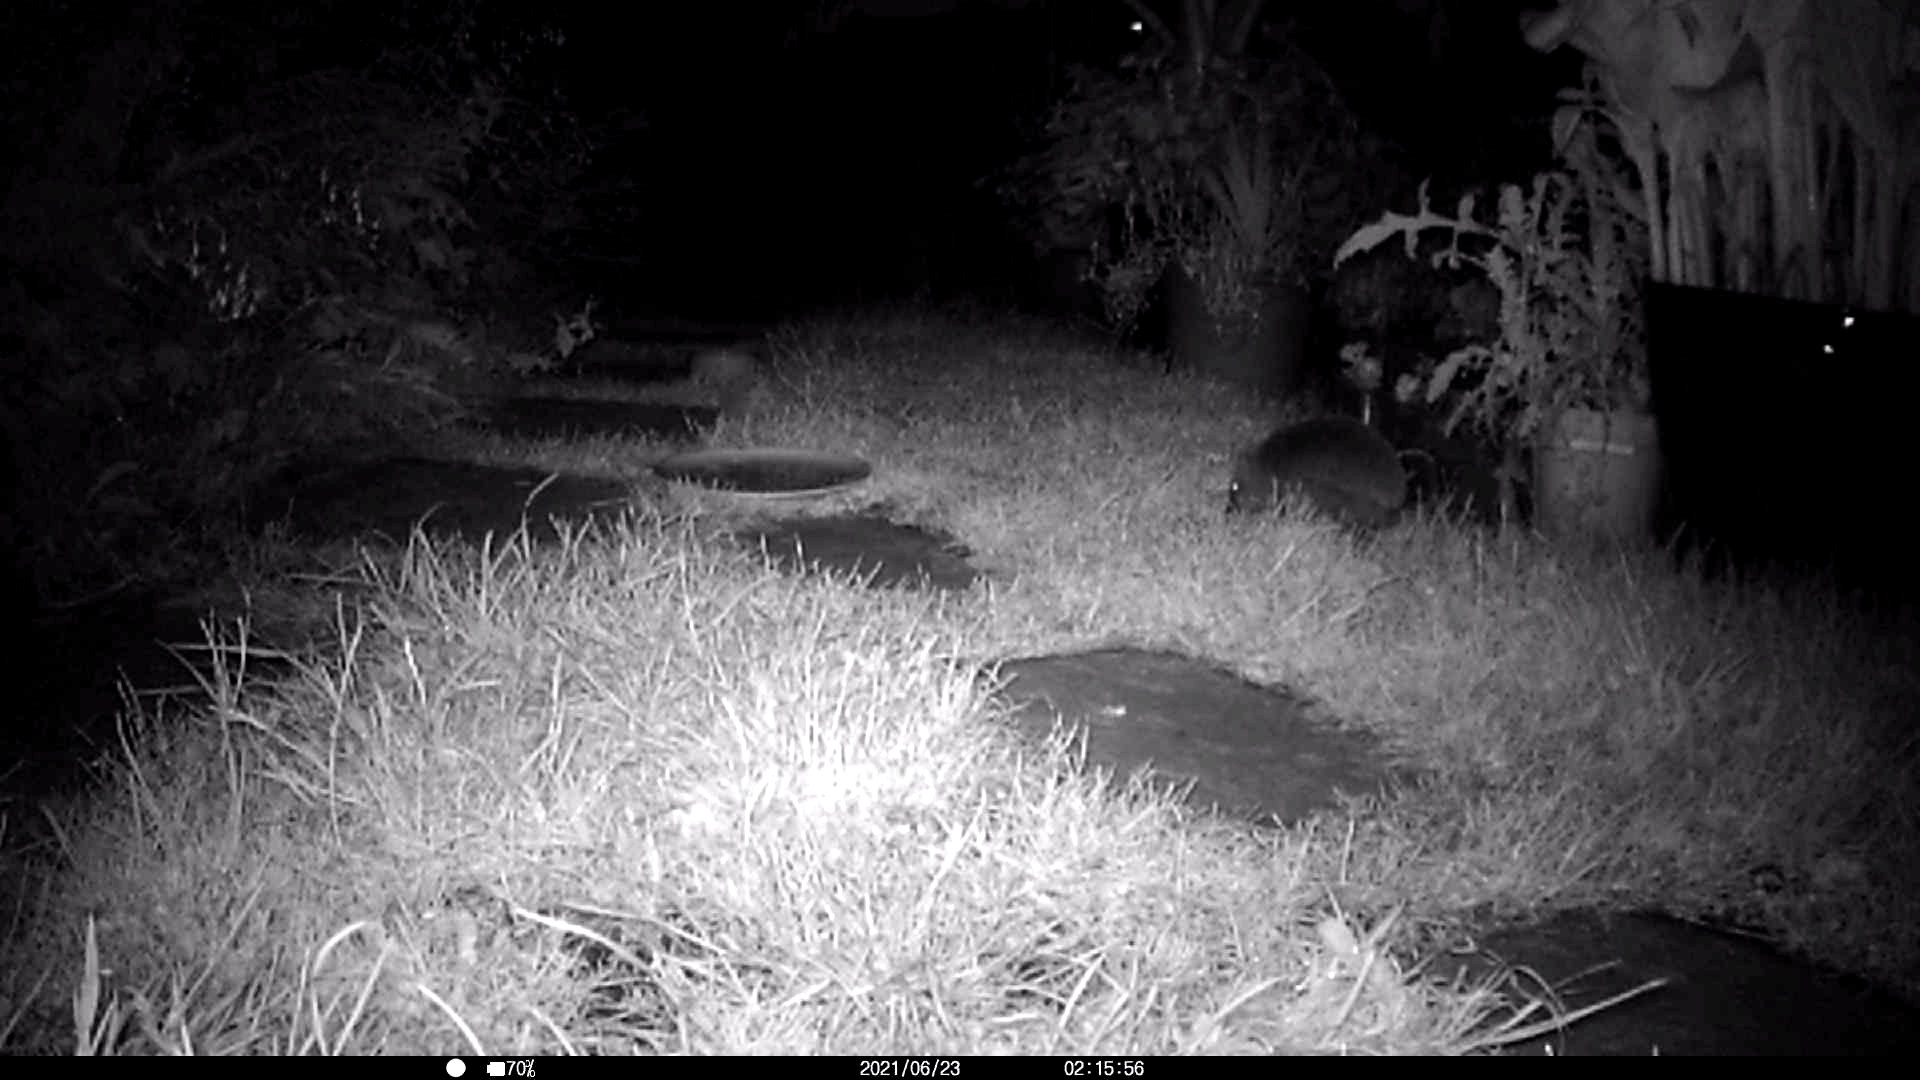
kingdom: Animalia
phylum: Chordata
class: Mammalia
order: Erinaceomorpha
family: Erinaceidae
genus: Erinaceus
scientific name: Erinaceus europaeus
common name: West european hedgehog
